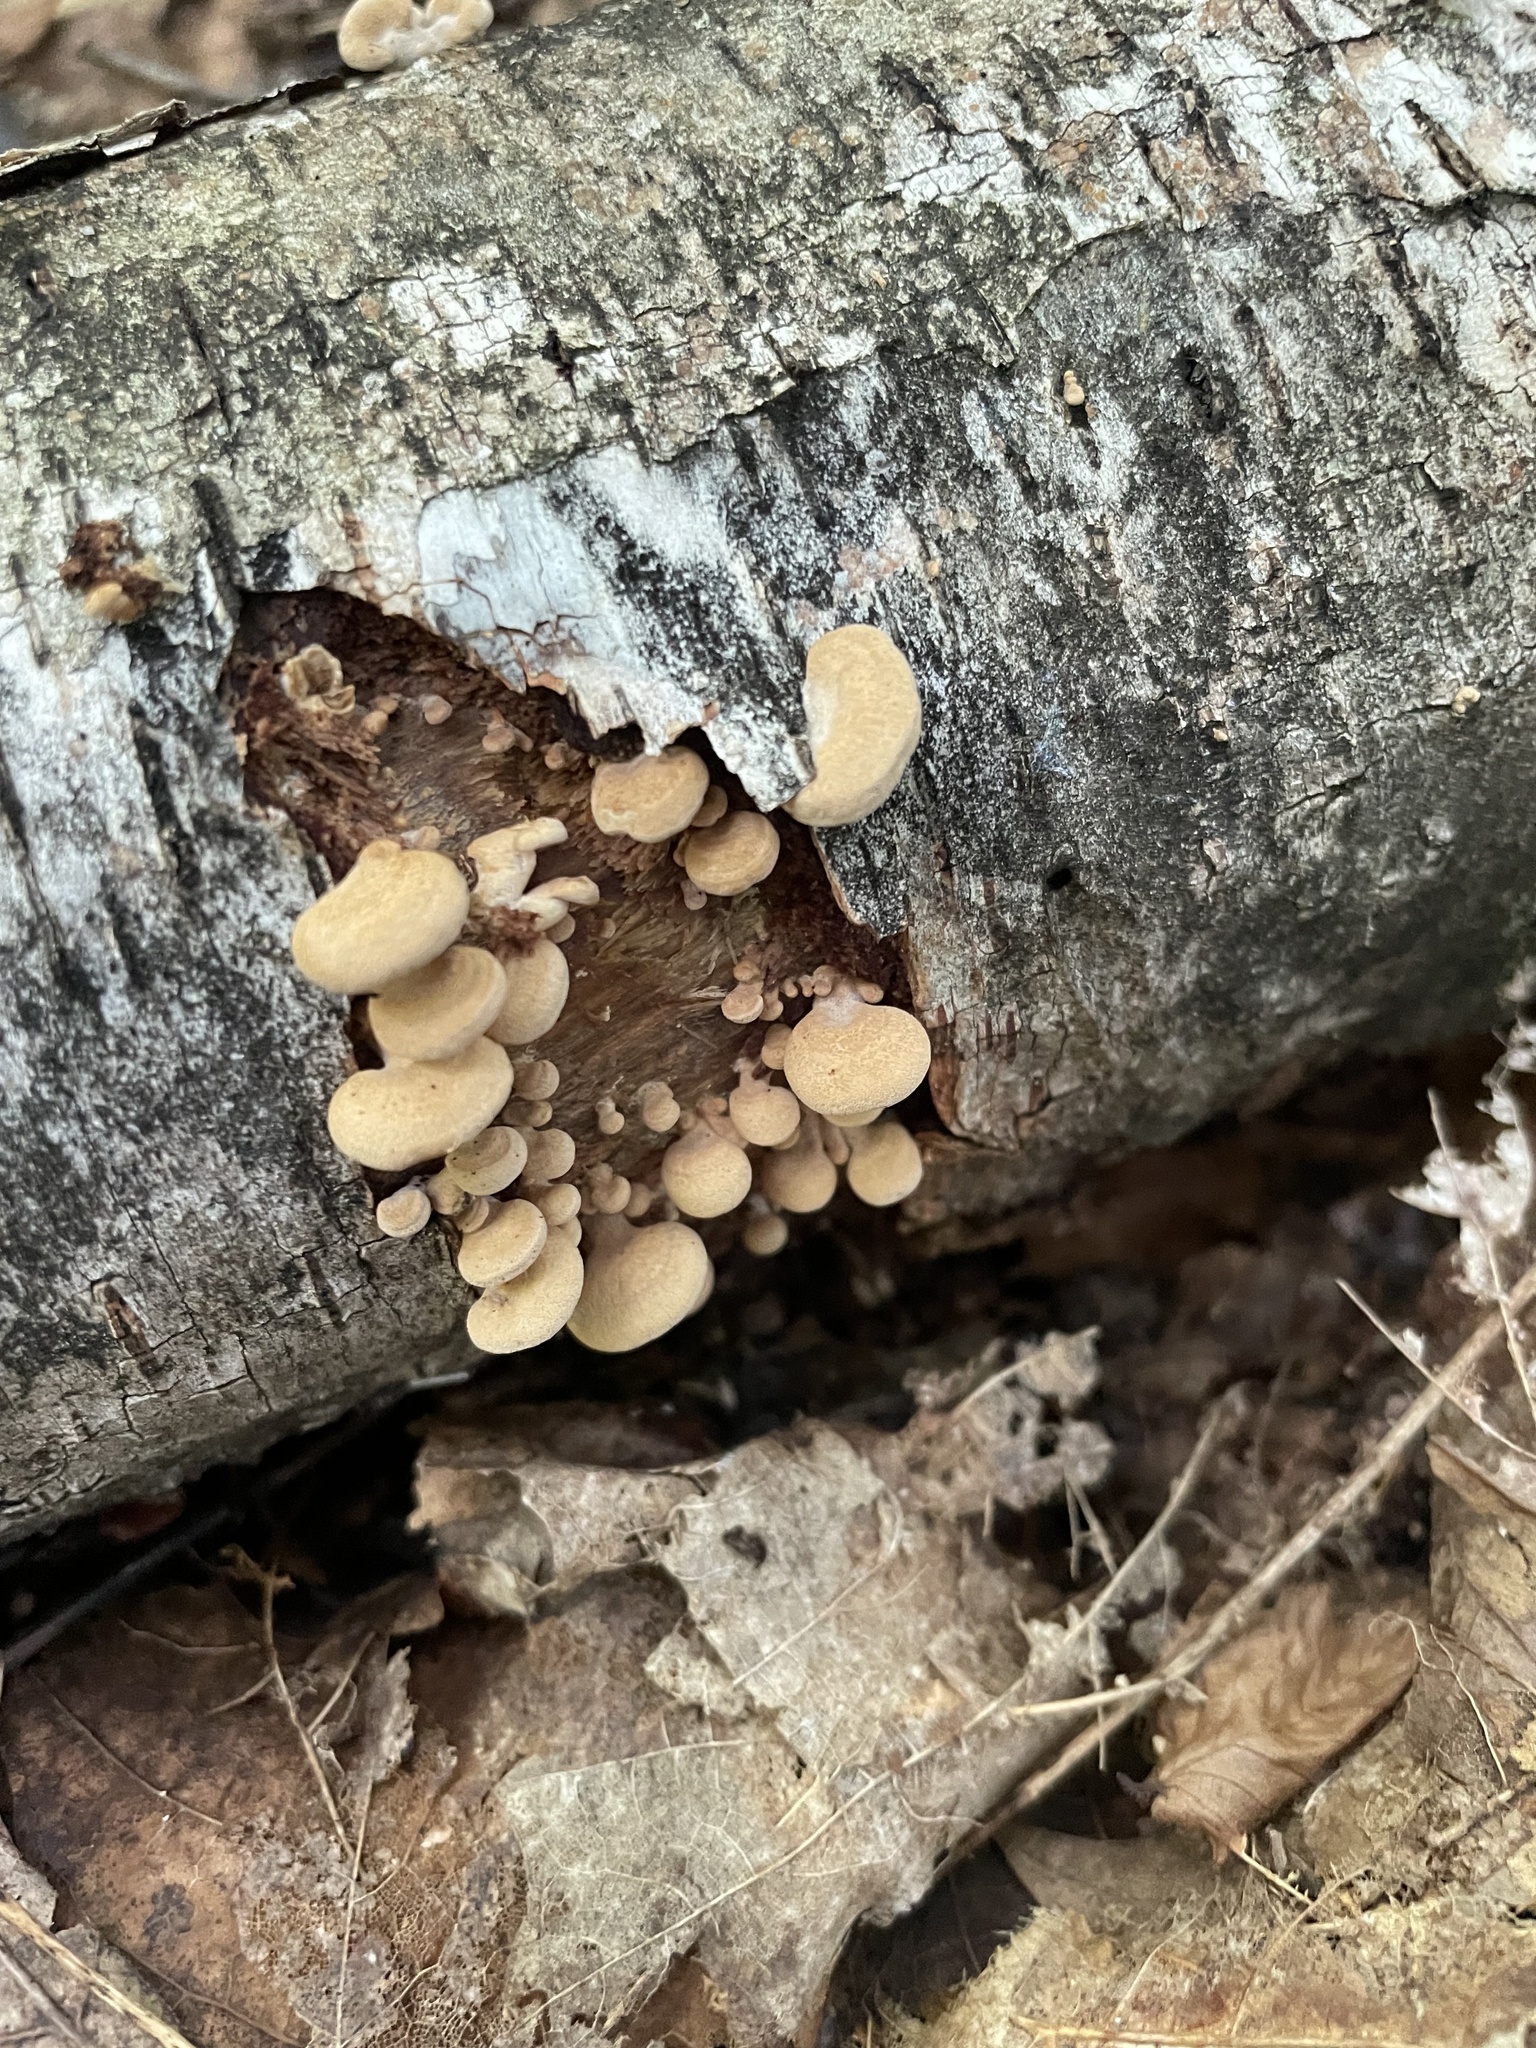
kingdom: Fungi
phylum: Basidiomycota
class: Agaricomycetes
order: Agaricales
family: Mycenaceae
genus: Panellus
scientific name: Panellus stipticus
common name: Bitter oysterling
